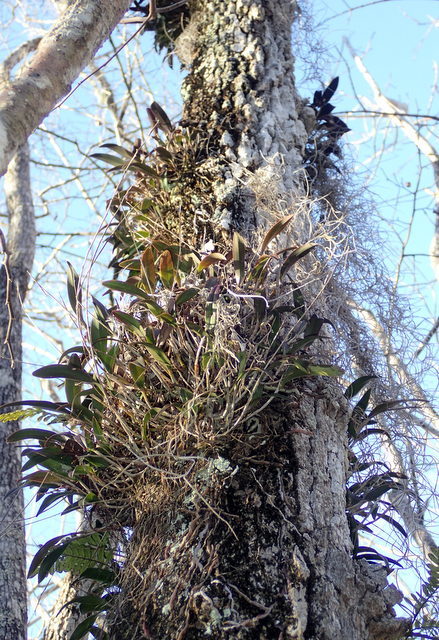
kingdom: Plantae
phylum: Tracheophyta
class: Liliopsida
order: Asparagales
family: Orchidaceae
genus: Epidendrum
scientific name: Epidendrum conopseum
